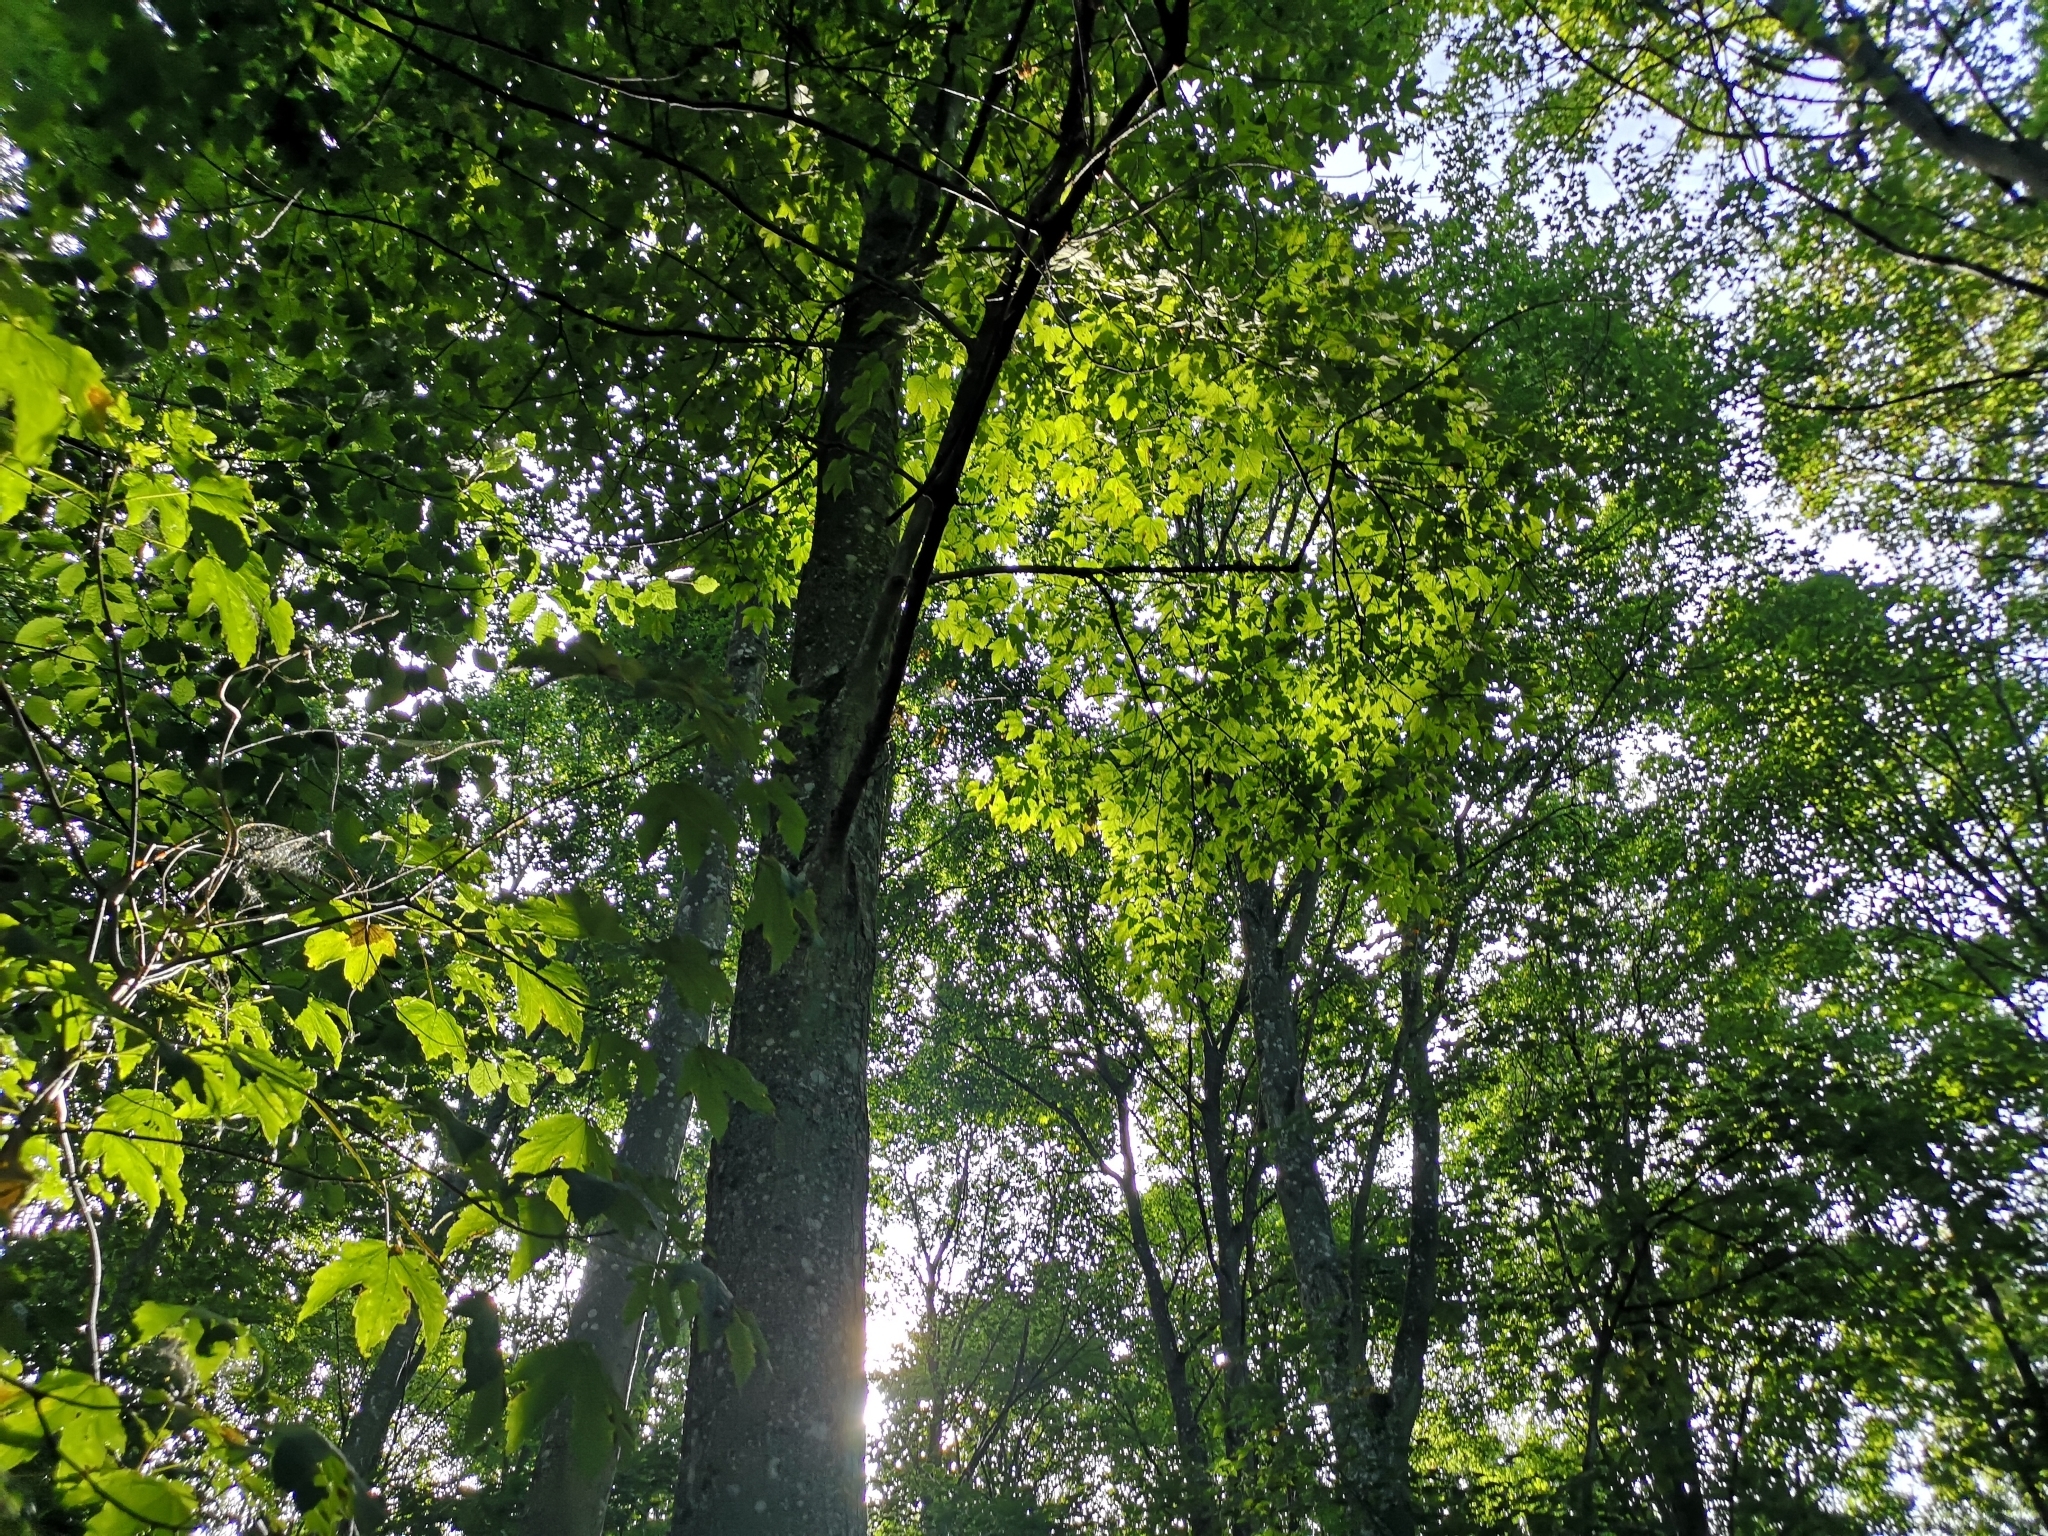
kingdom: Plantae
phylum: Tracheophyta
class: Magnoliopsida
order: Sapindales
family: Sapindaceae
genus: Acer
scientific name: Acer pseudoplatanus
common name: Sycamore
